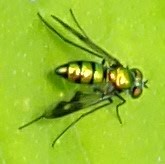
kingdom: Animalia
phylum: Arthropoda
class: Insecta
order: Diptera
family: Dolichopodidae
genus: Condylostylus
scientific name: Condylostylus patibulatus
